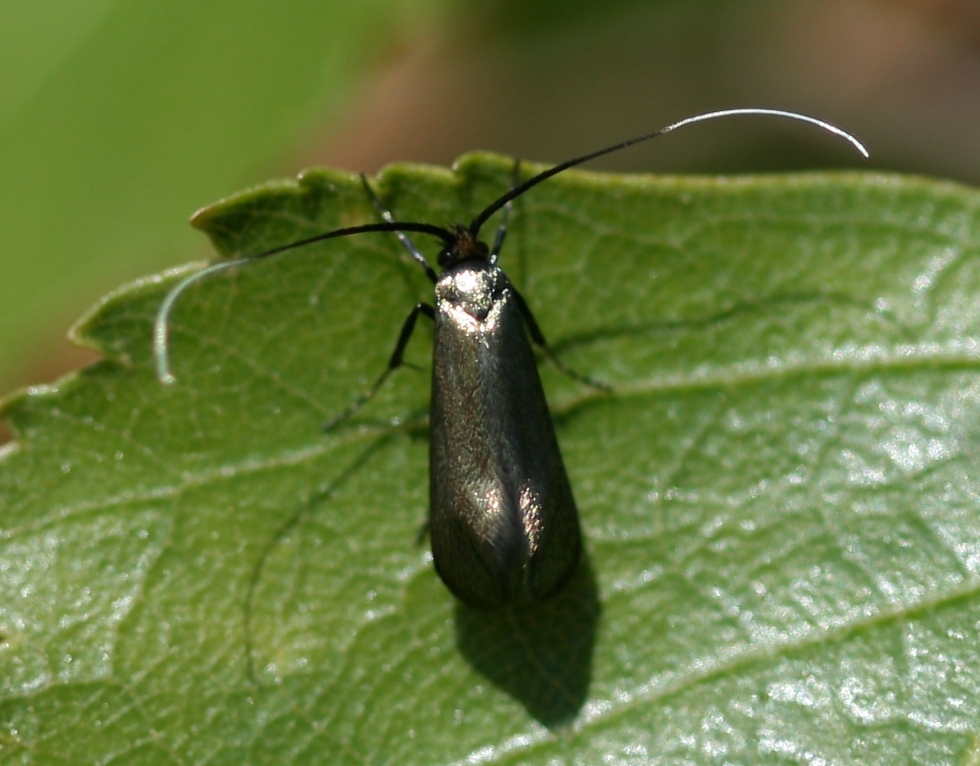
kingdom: Animalia
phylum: Arthropoda
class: Insecta
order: Lepidoptera
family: Adelidae
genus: Adela
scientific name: Adela viridella
